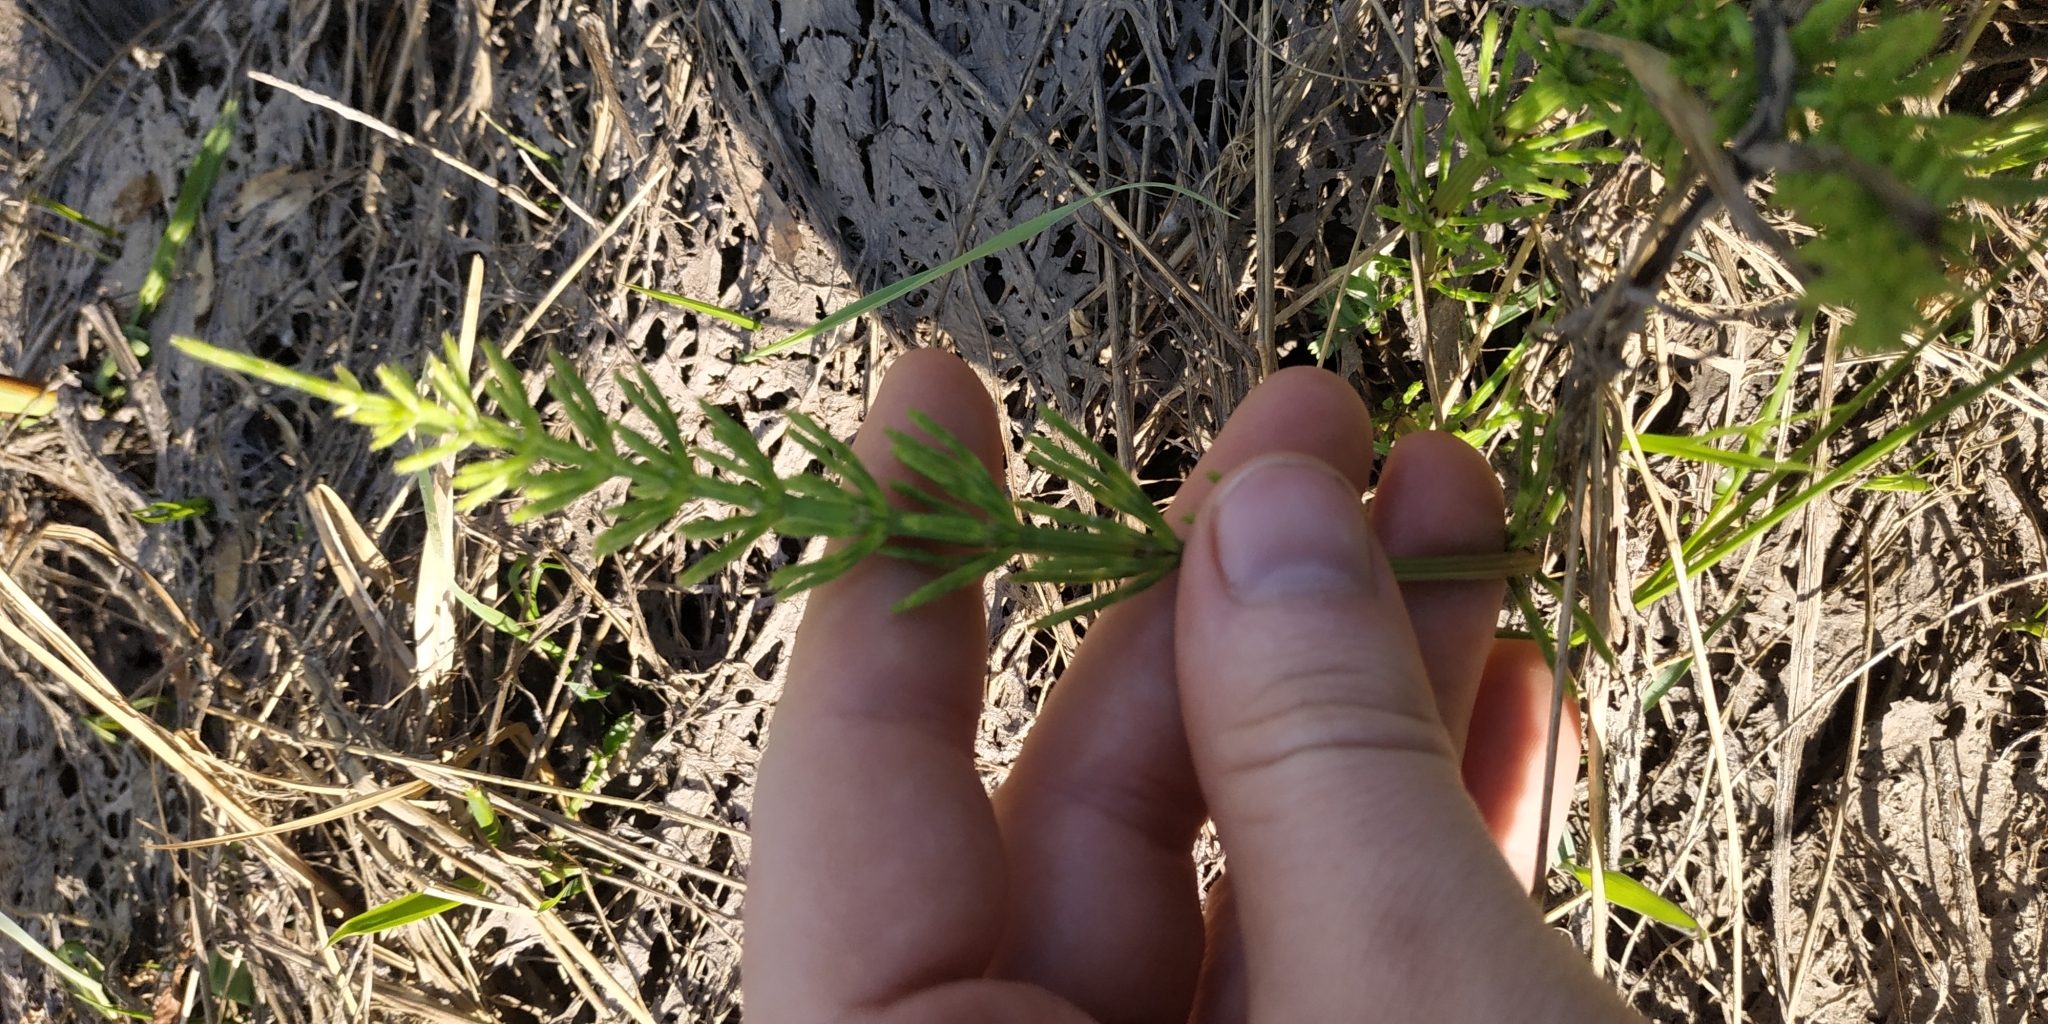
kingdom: Plantae
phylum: Tracheophyta
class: Polypodiopsida
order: Equisetales
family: Equisetaceae
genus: Equisetum
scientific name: Equisetum arvense
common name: Field horsetail
